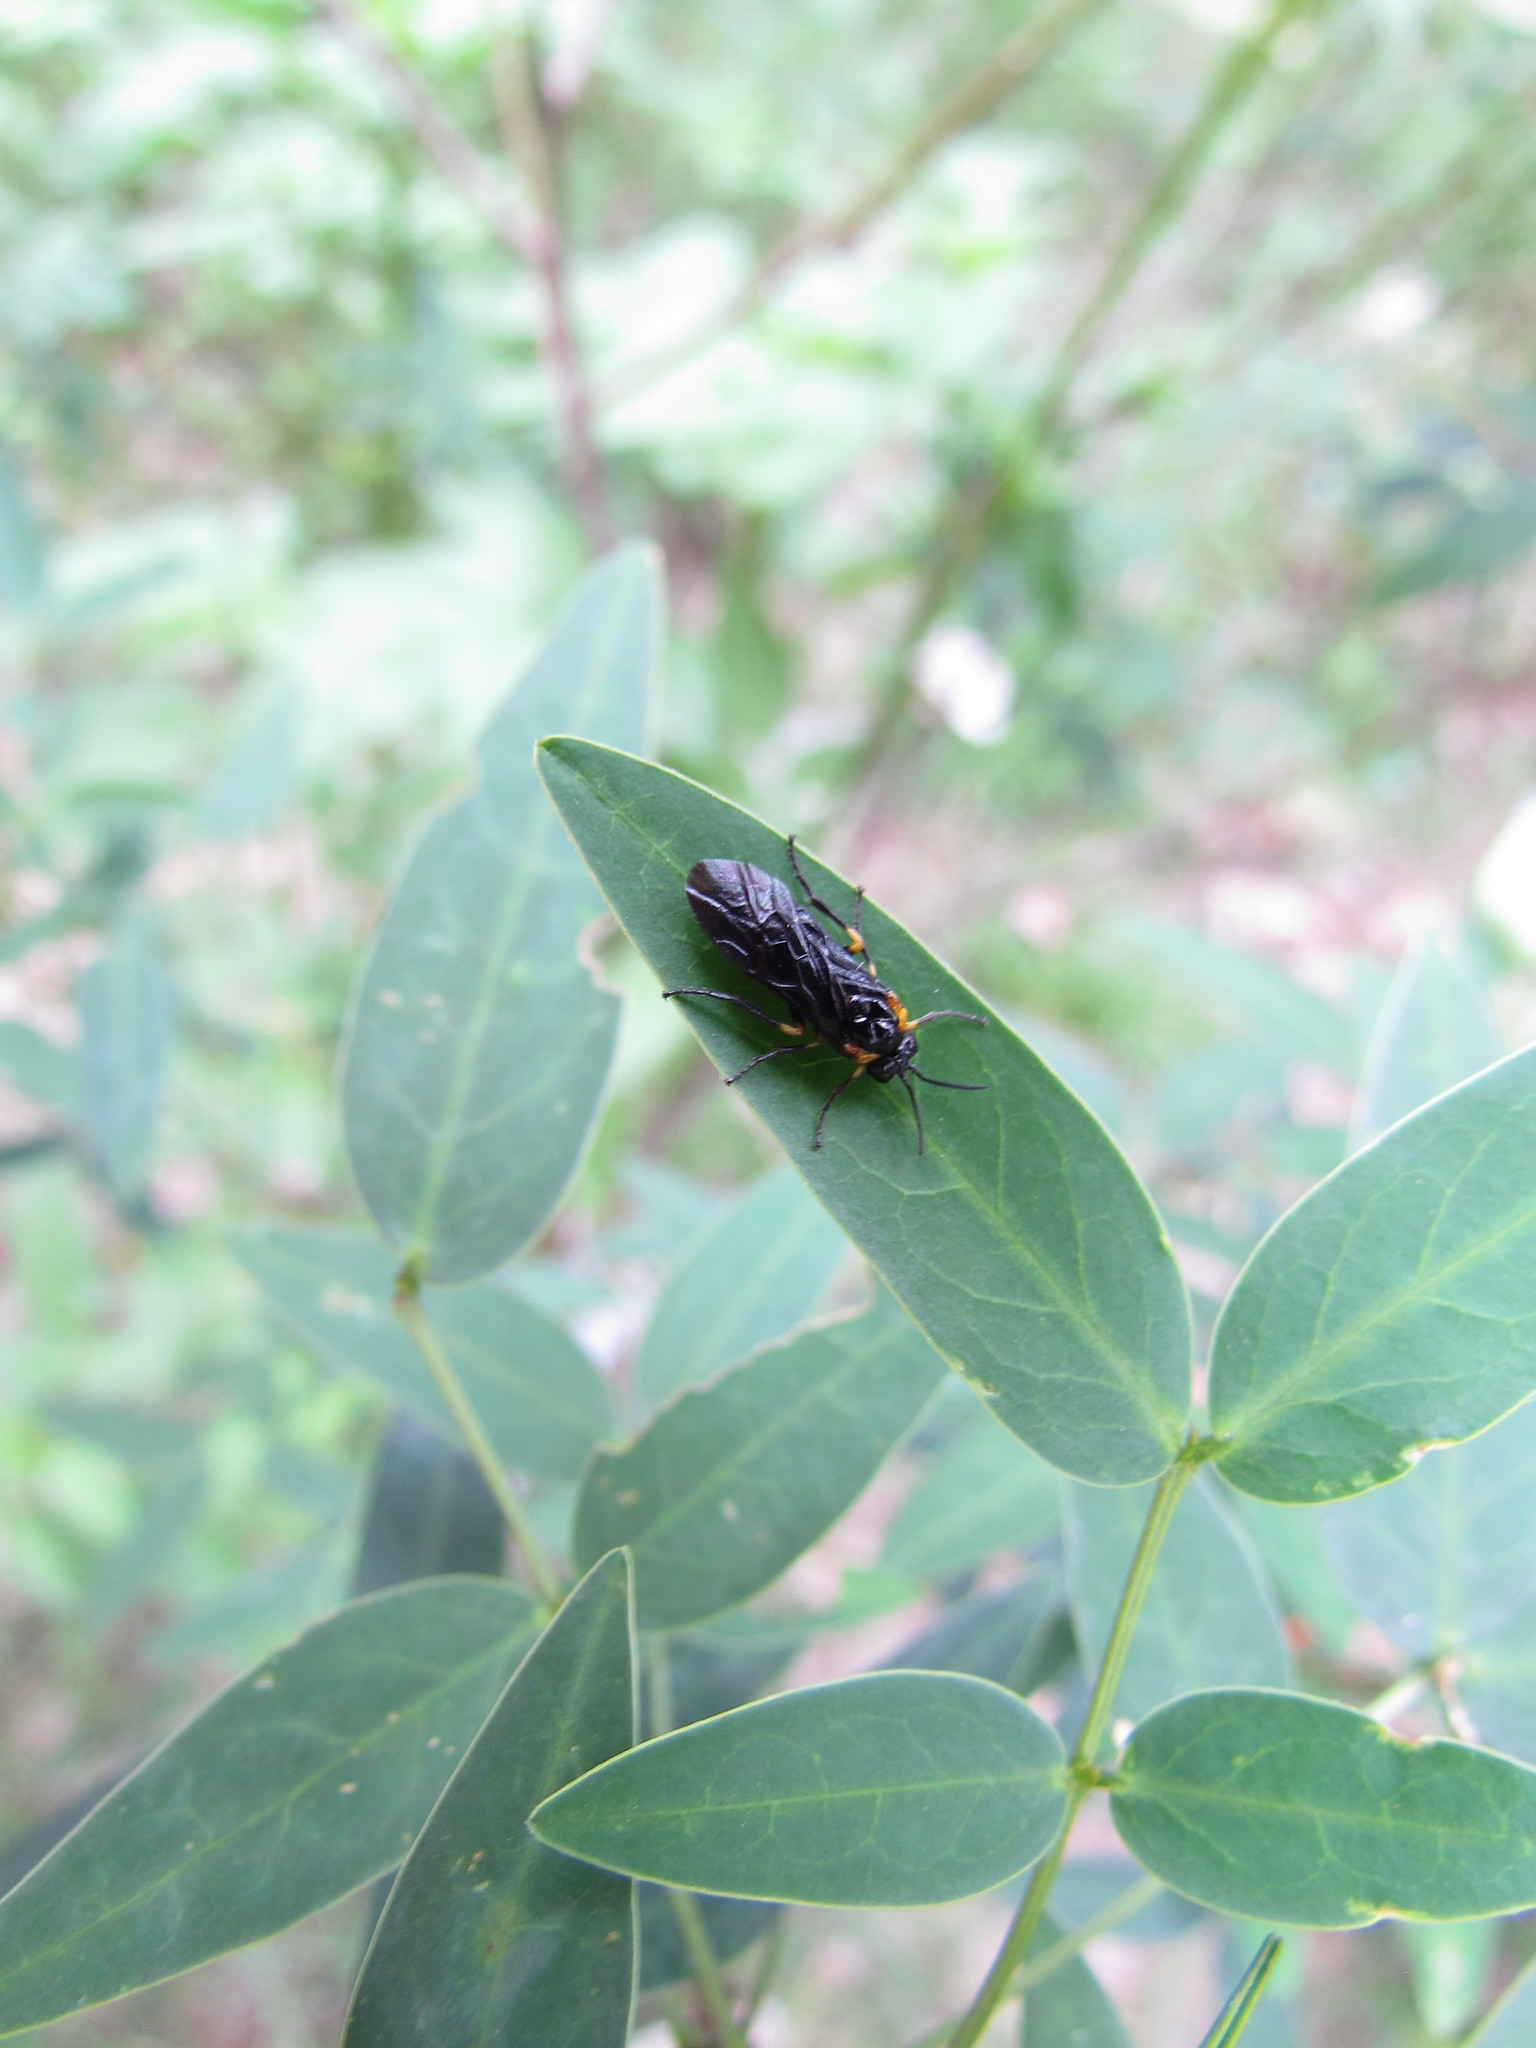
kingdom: Animalia
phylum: Arthropoda
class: Insecta
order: Hymenoptera
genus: Adurgoa
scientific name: Adurgoa
